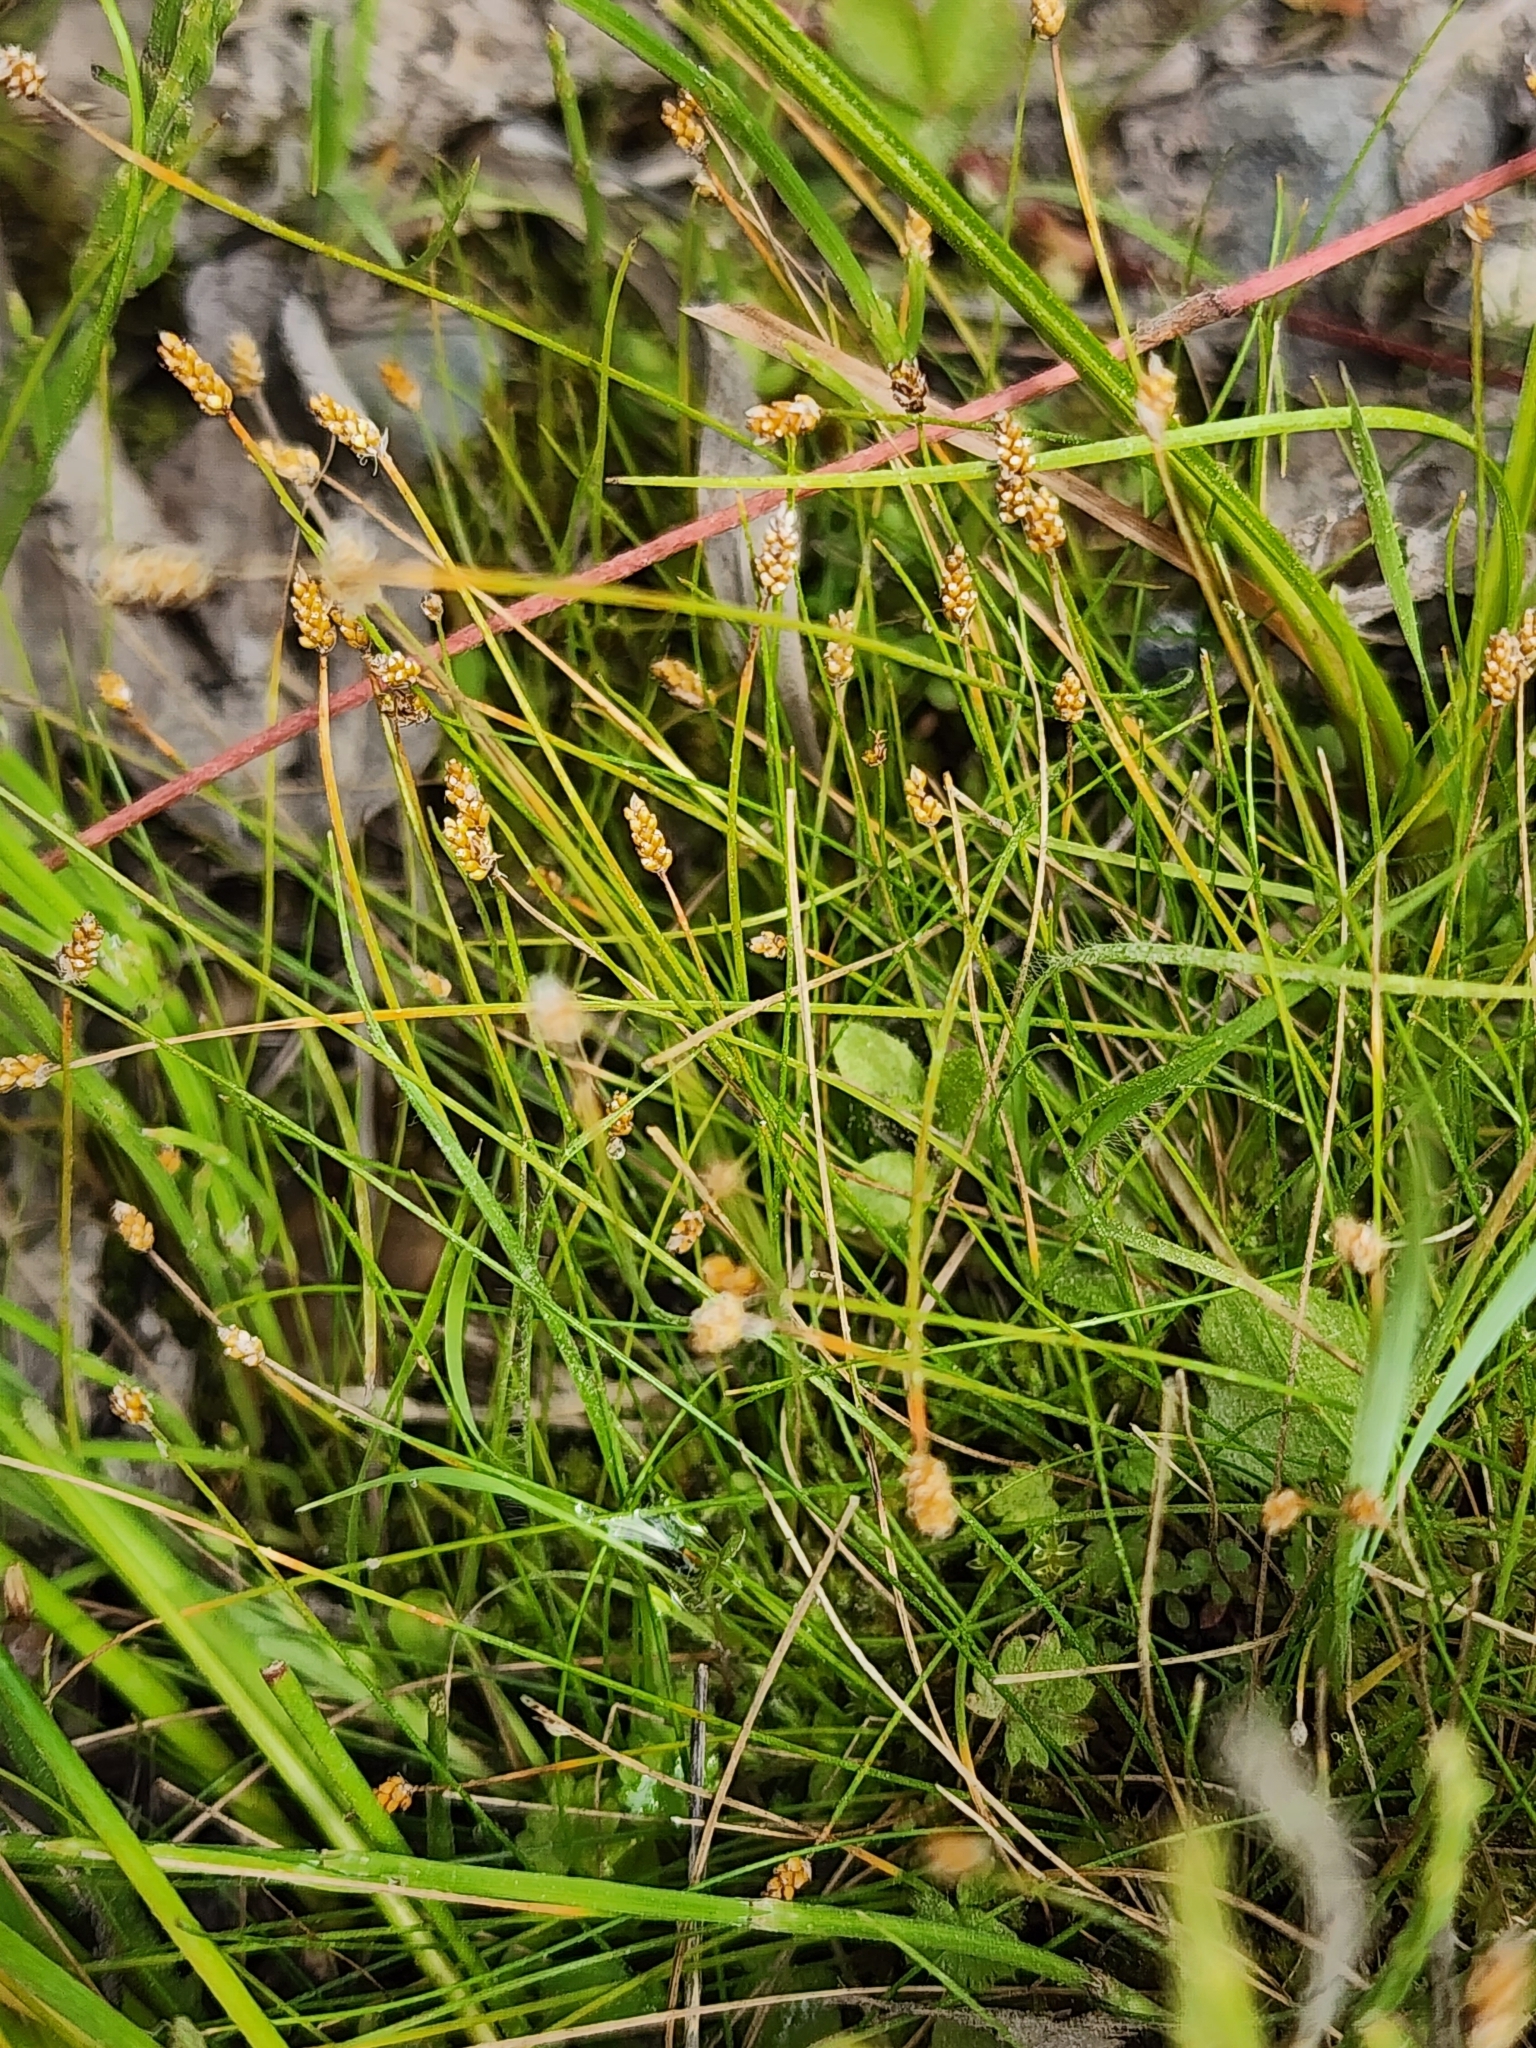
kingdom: Plantae
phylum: Tracheophyta
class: Liliopsida
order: Poales
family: Cyperaceae
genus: Eleocharis
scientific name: Eleocharis nitida
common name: Neat spikerush
